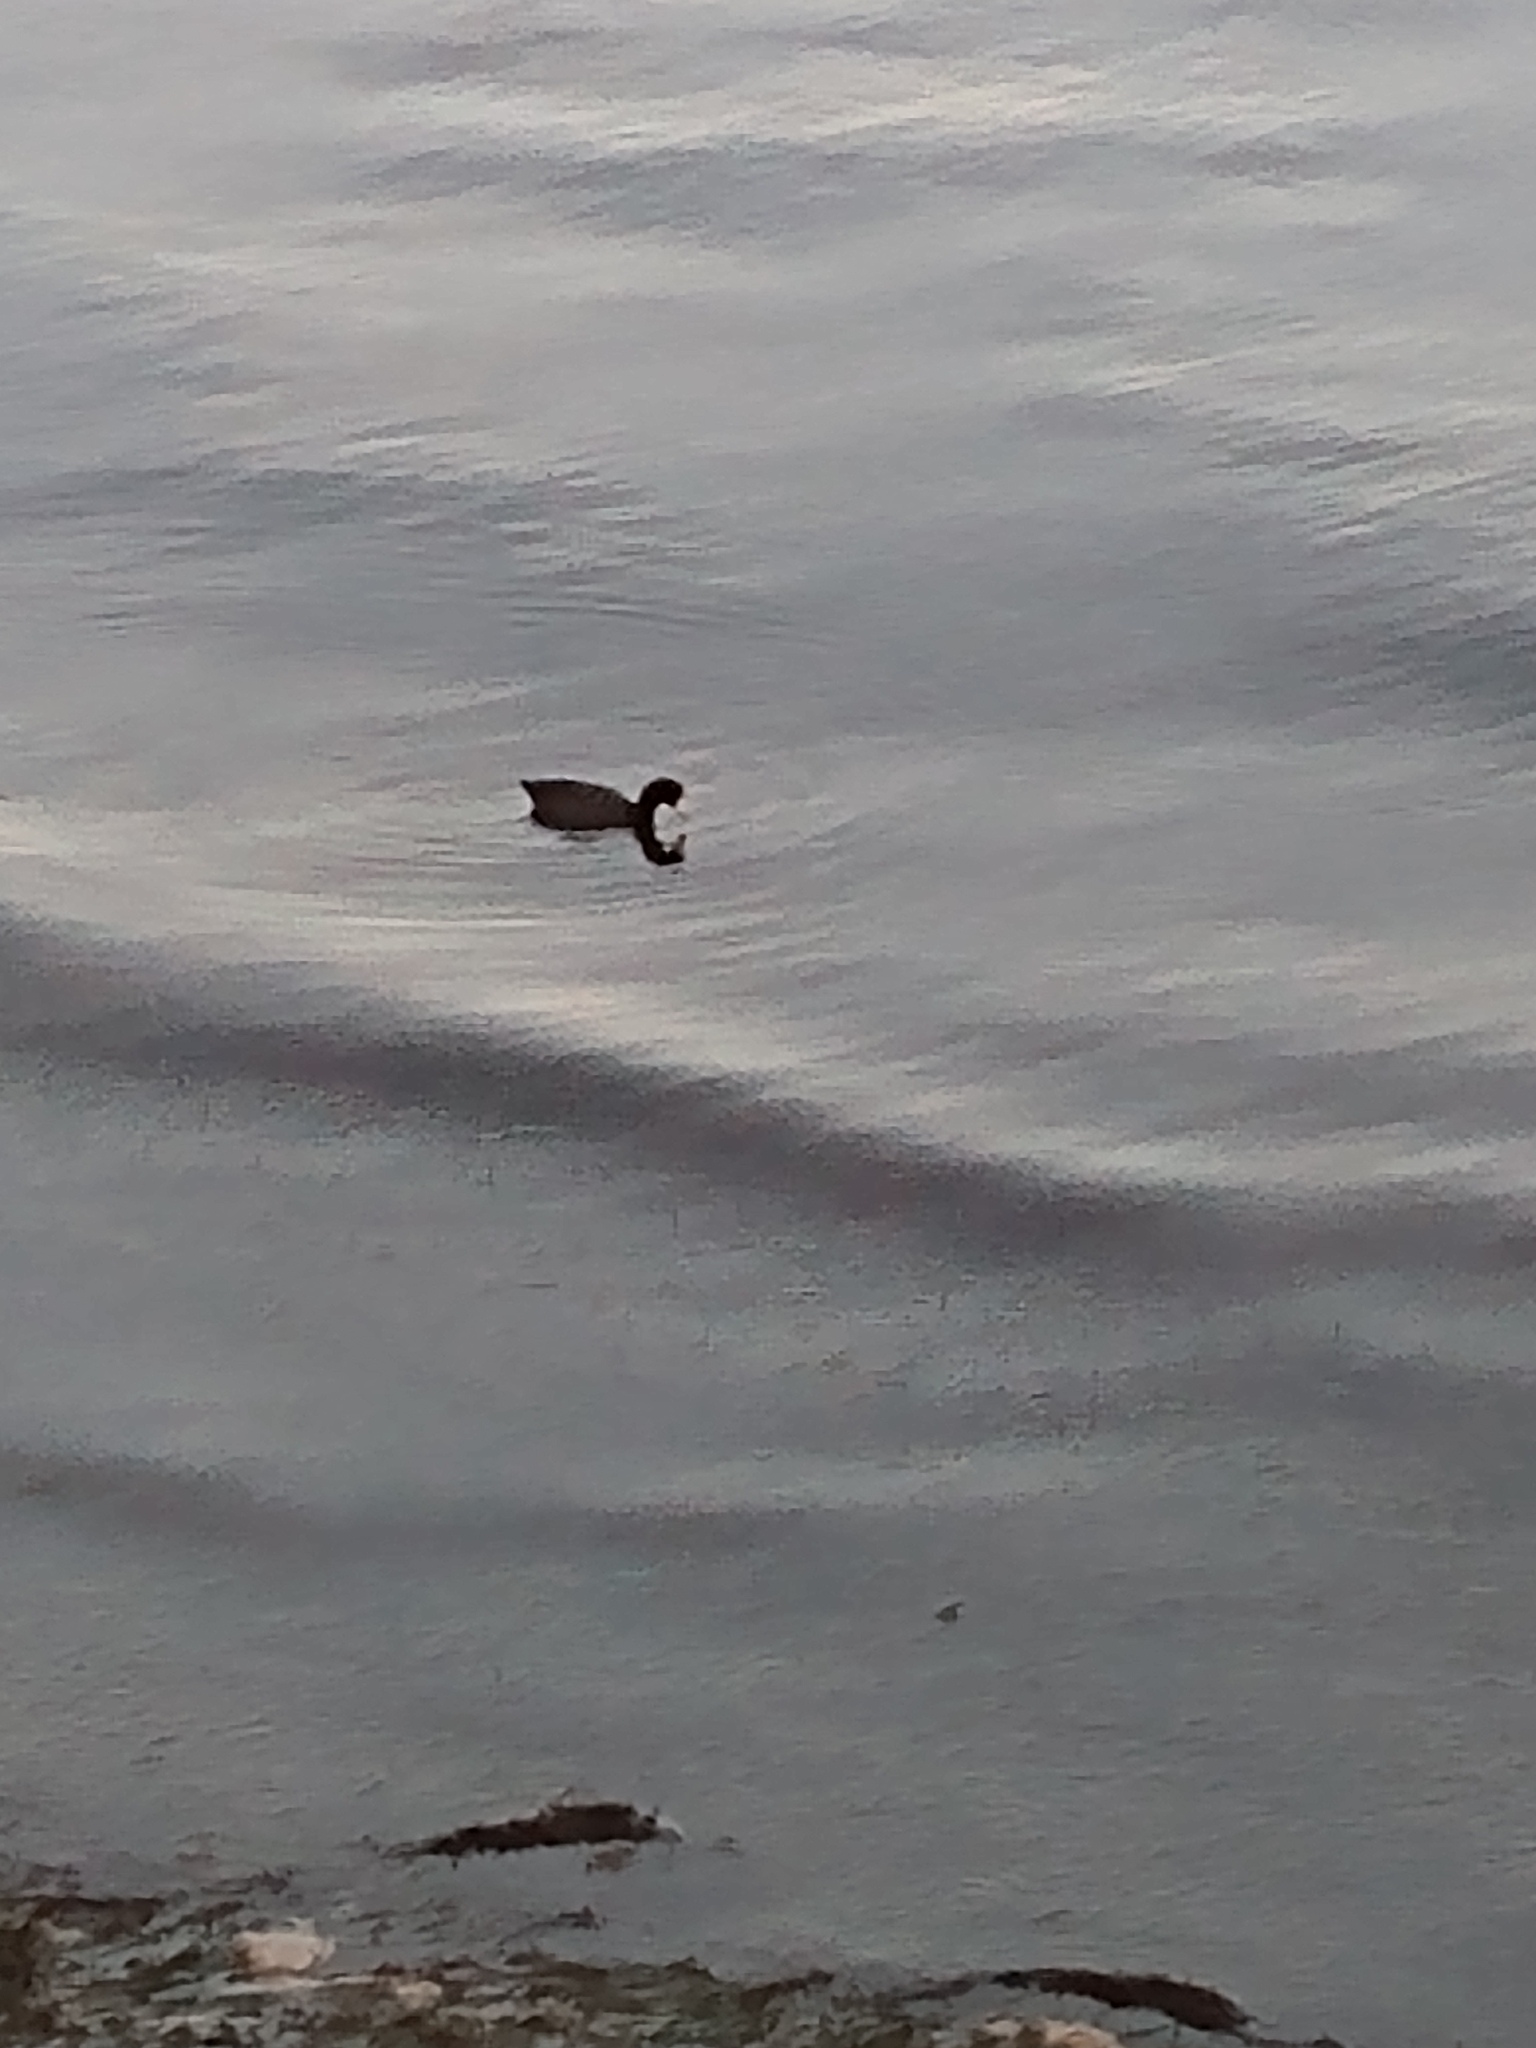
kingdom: Animalia
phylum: Chordata
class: Aves
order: Gruiformes
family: Rallidae
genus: Fulica
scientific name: Fulica americana
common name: American coot
